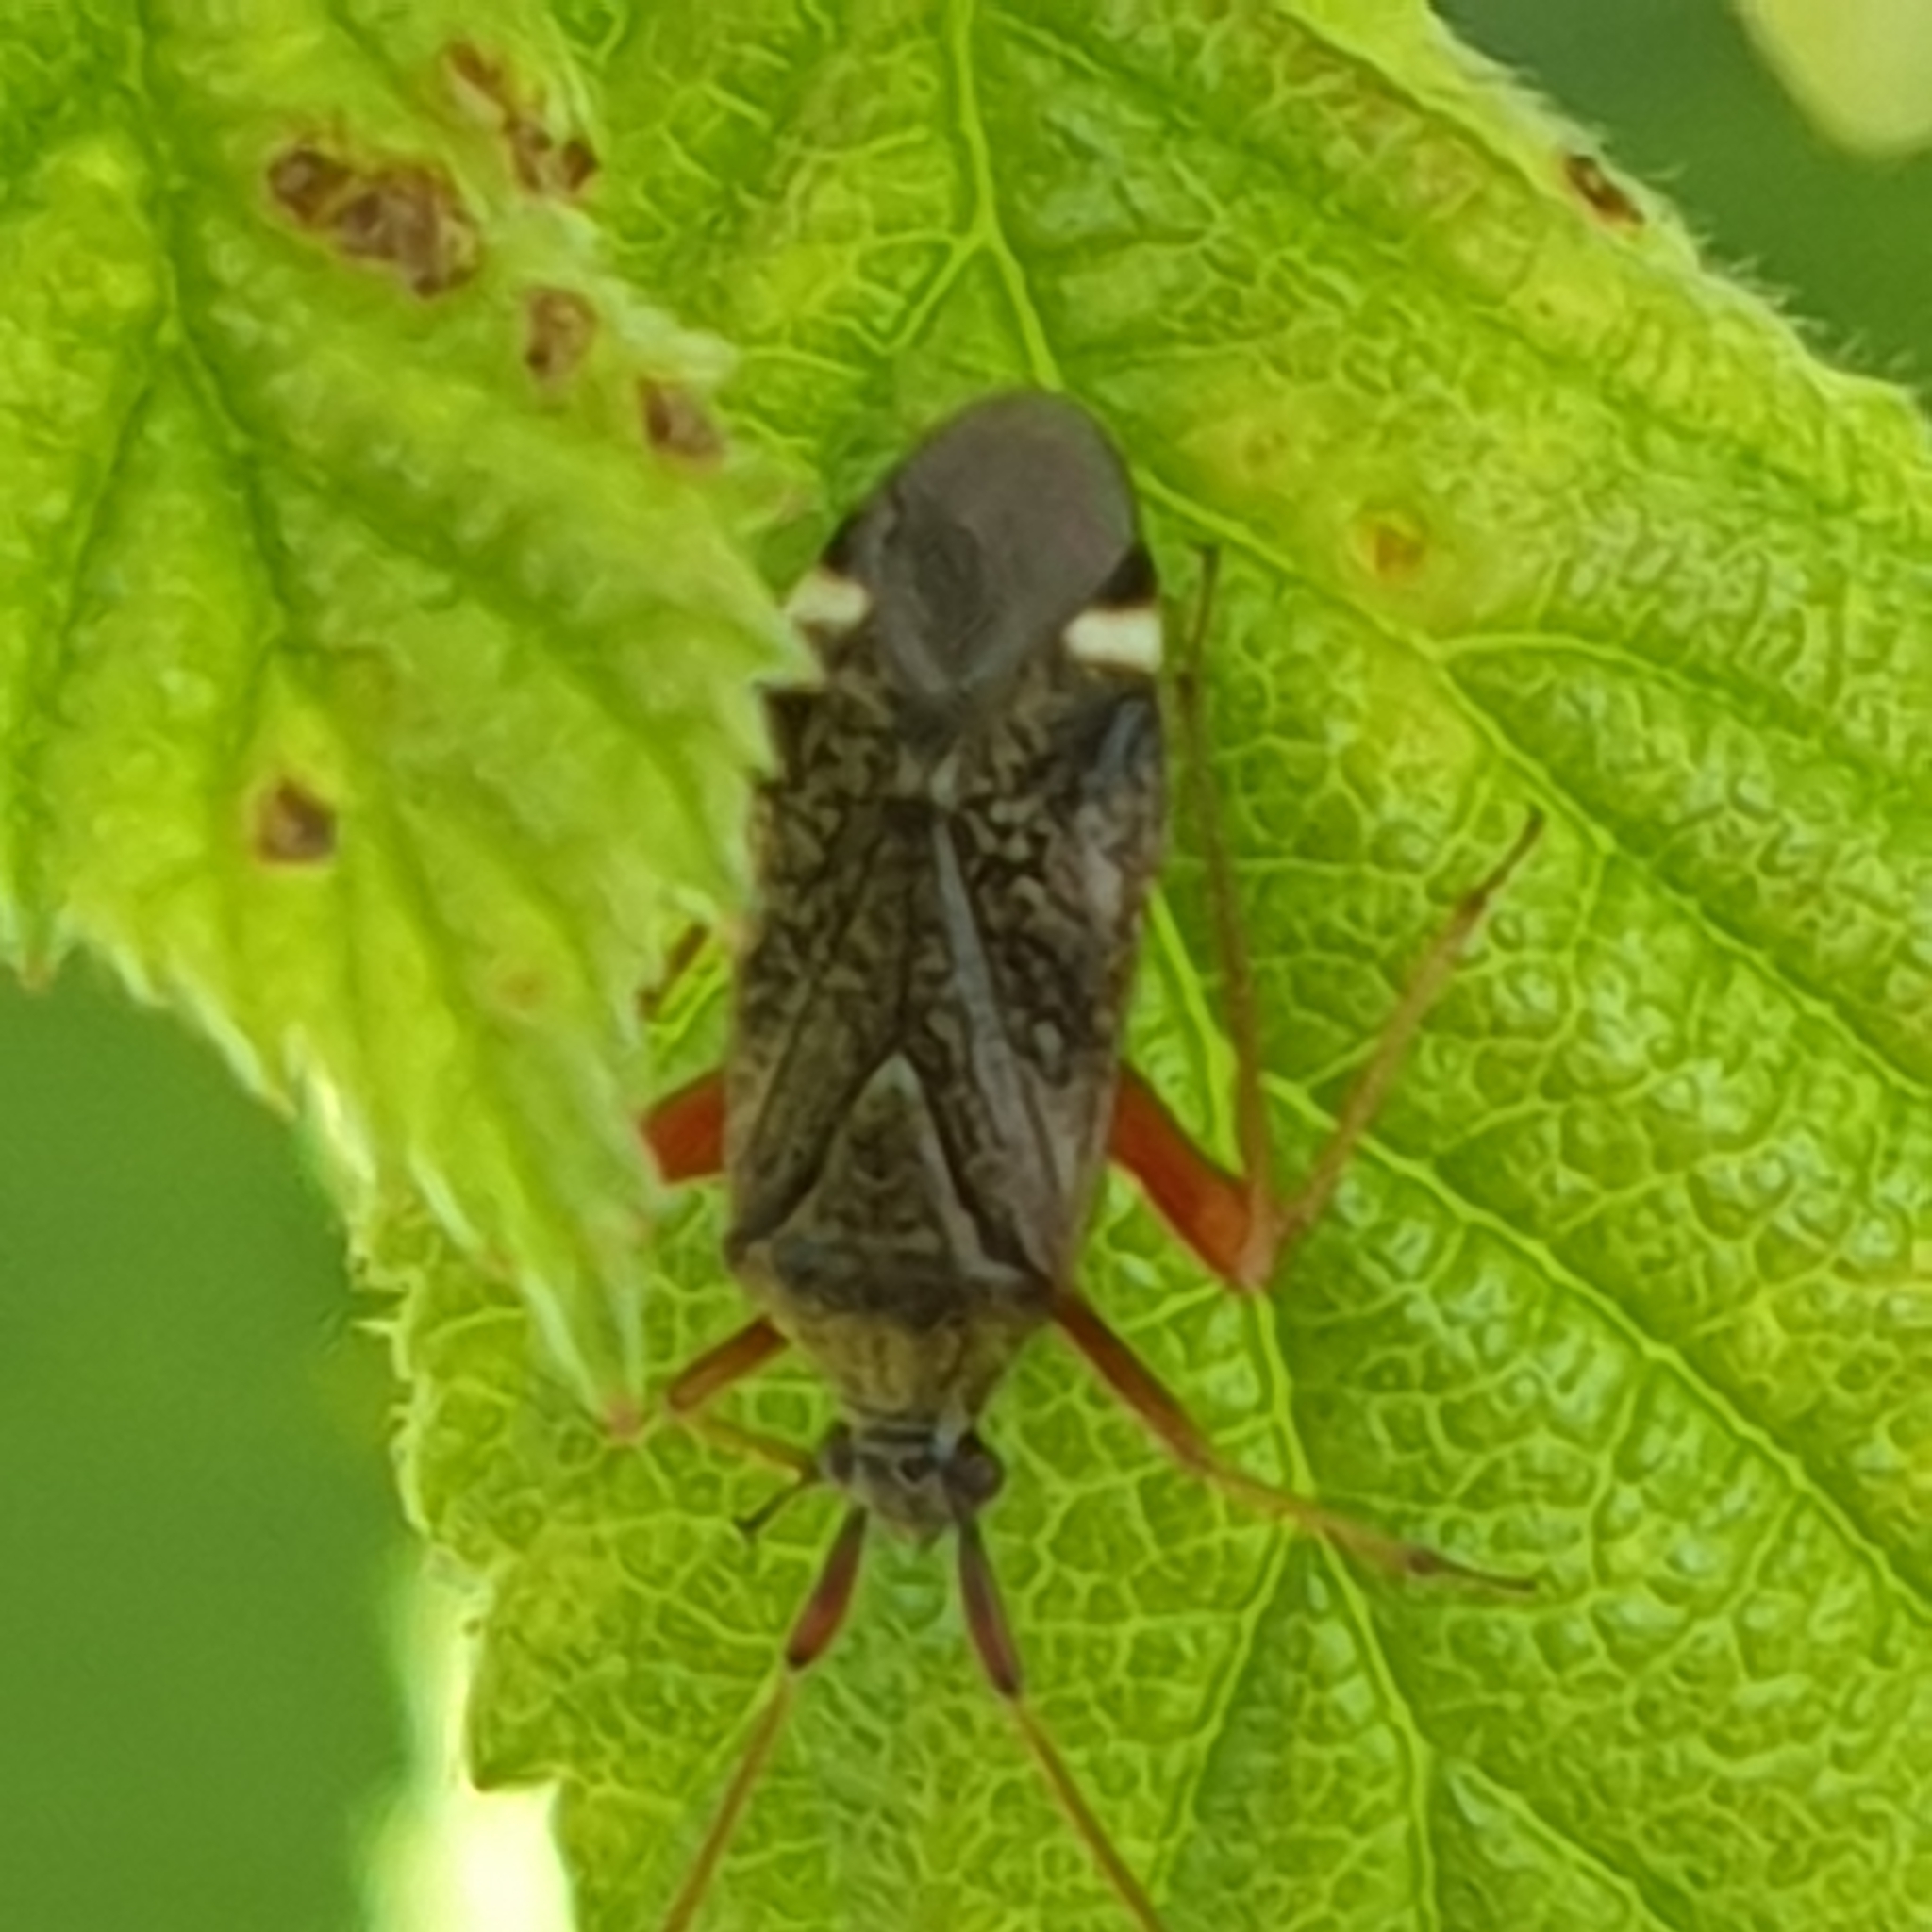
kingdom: Animalia
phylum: Arthropoda
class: Insecta
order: Hemiptera
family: Miridae
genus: Closterotomus
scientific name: Closterotomus biclavatus
